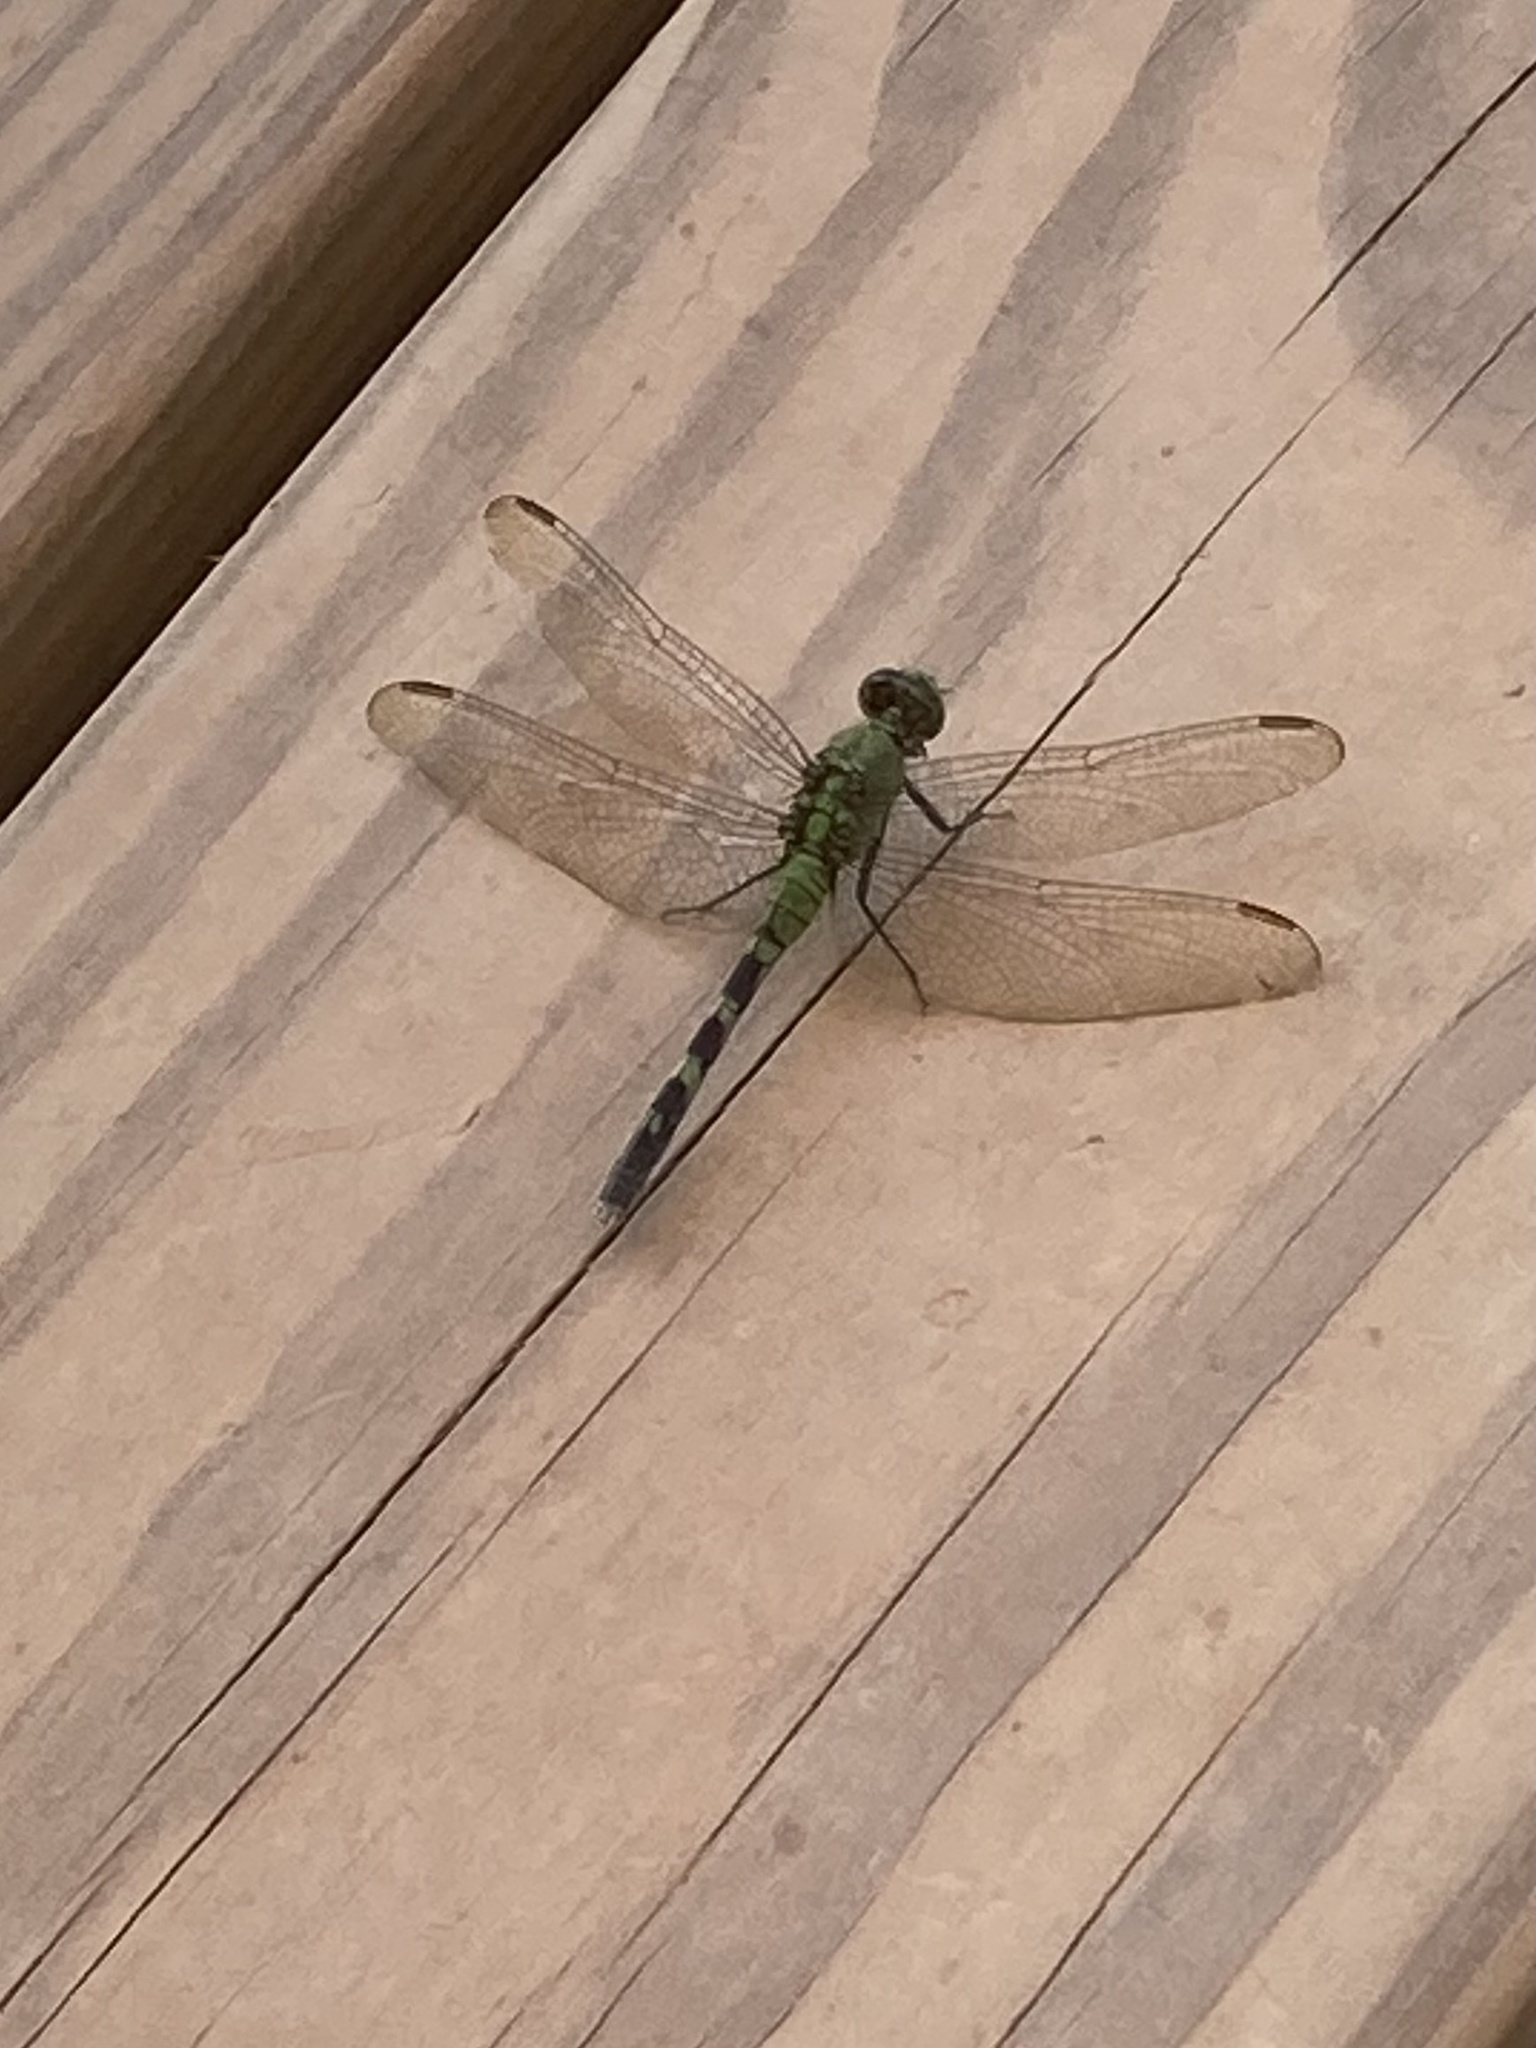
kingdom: Animalia
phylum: Arthropoda
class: Insecta
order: Odonata
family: Libellulidae
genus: Erythemis
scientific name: Erythemis simplicicollis
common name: Eastern pondhawk
